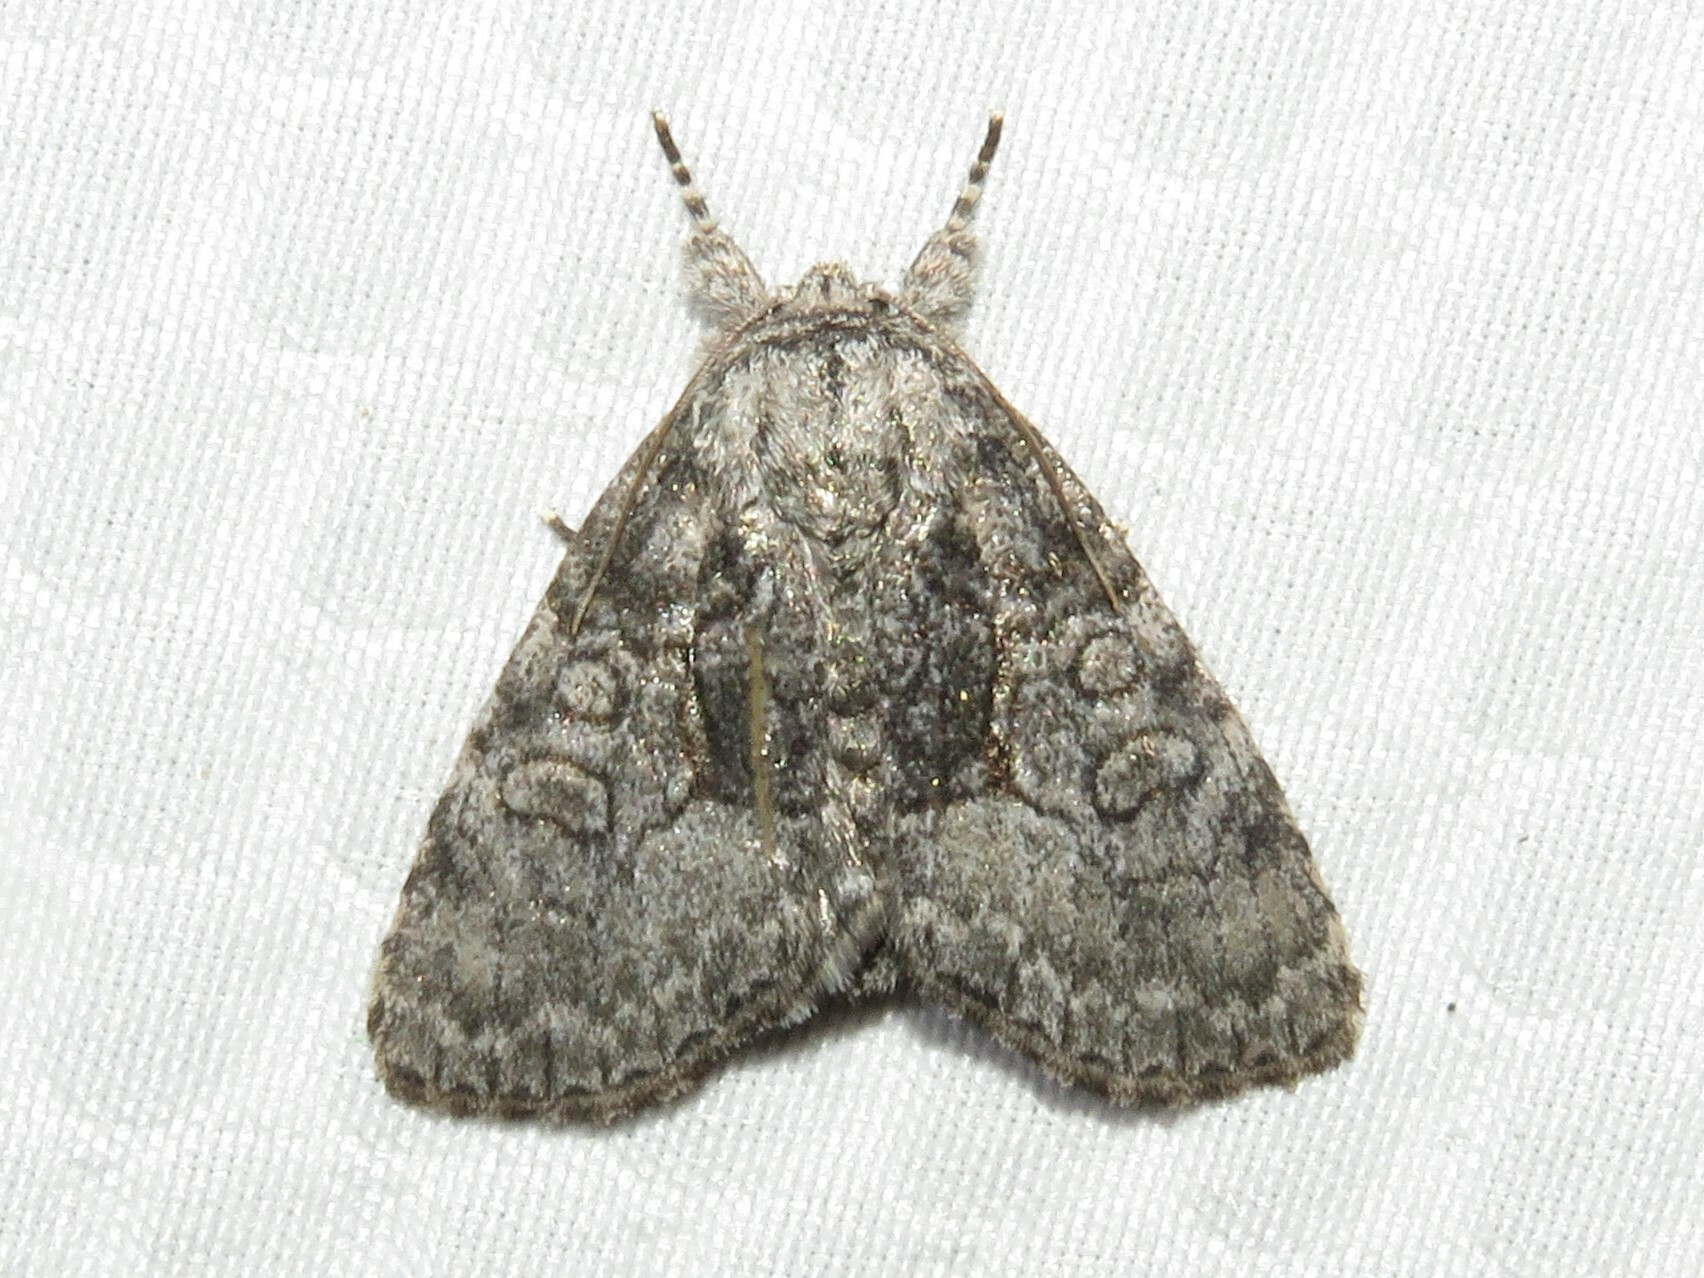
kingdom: Animalia
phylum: Arthropoda
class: Insecta
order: Lepidoptera
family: Noctuidae
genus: Raphia
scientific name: Raphia frater
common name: Brother
